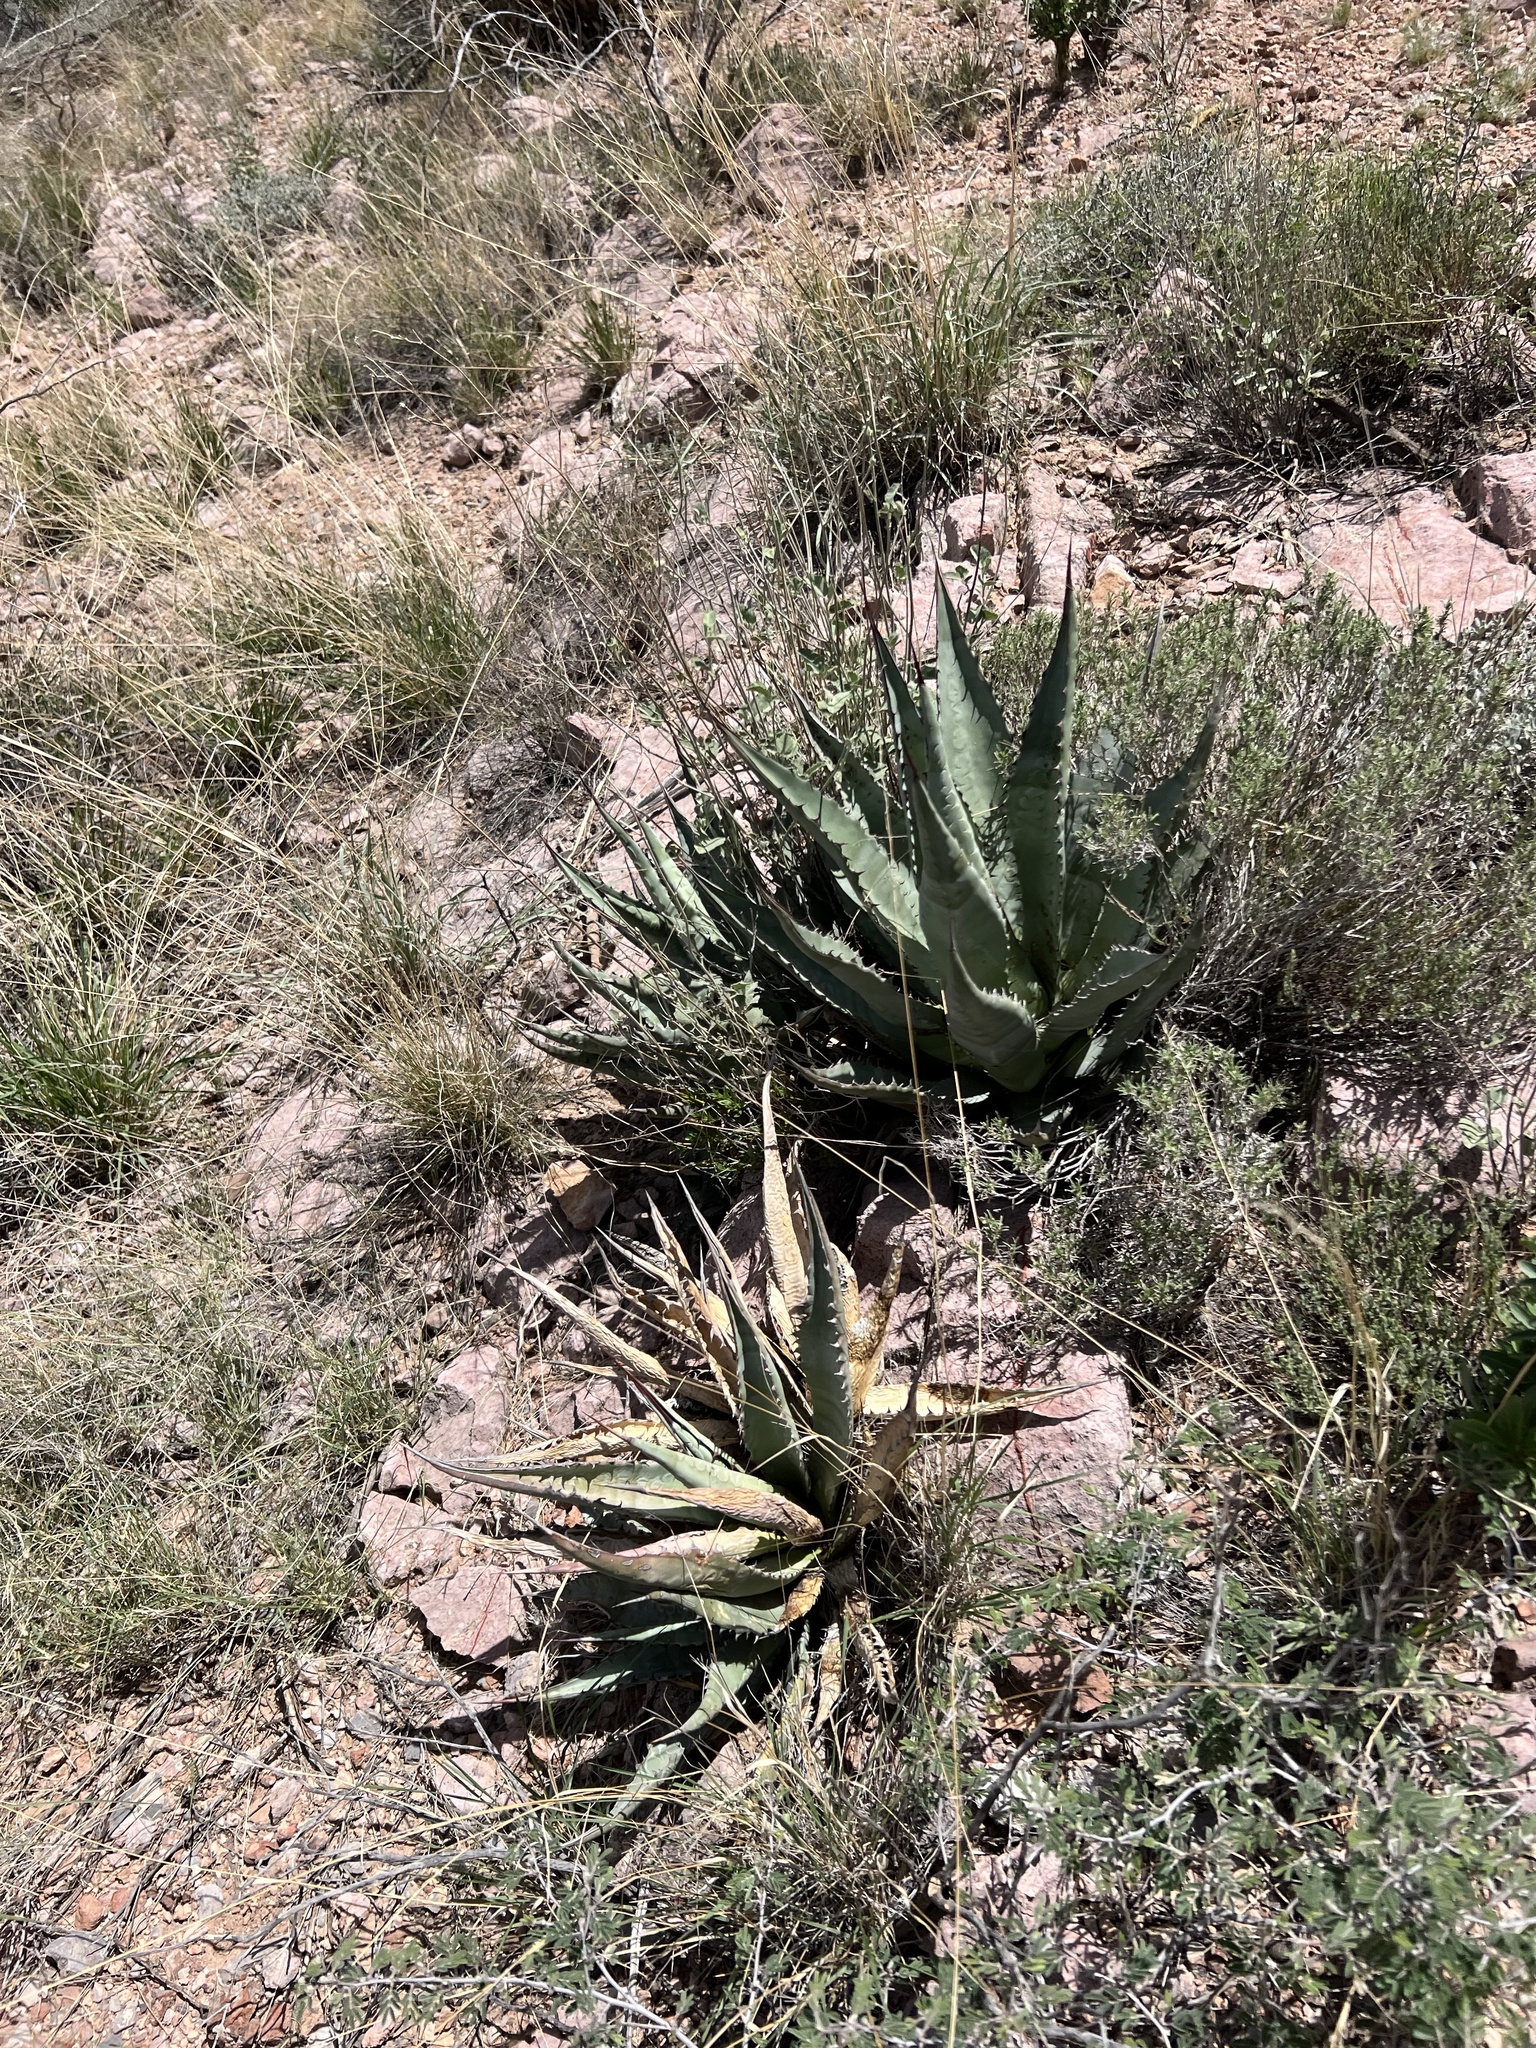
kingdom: Plantae
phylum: Tracheophyta
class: Liliopsida
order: Asparagales
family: Asparagaceae
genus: Agave
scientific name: Agave palmeri
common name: Palmer agave
